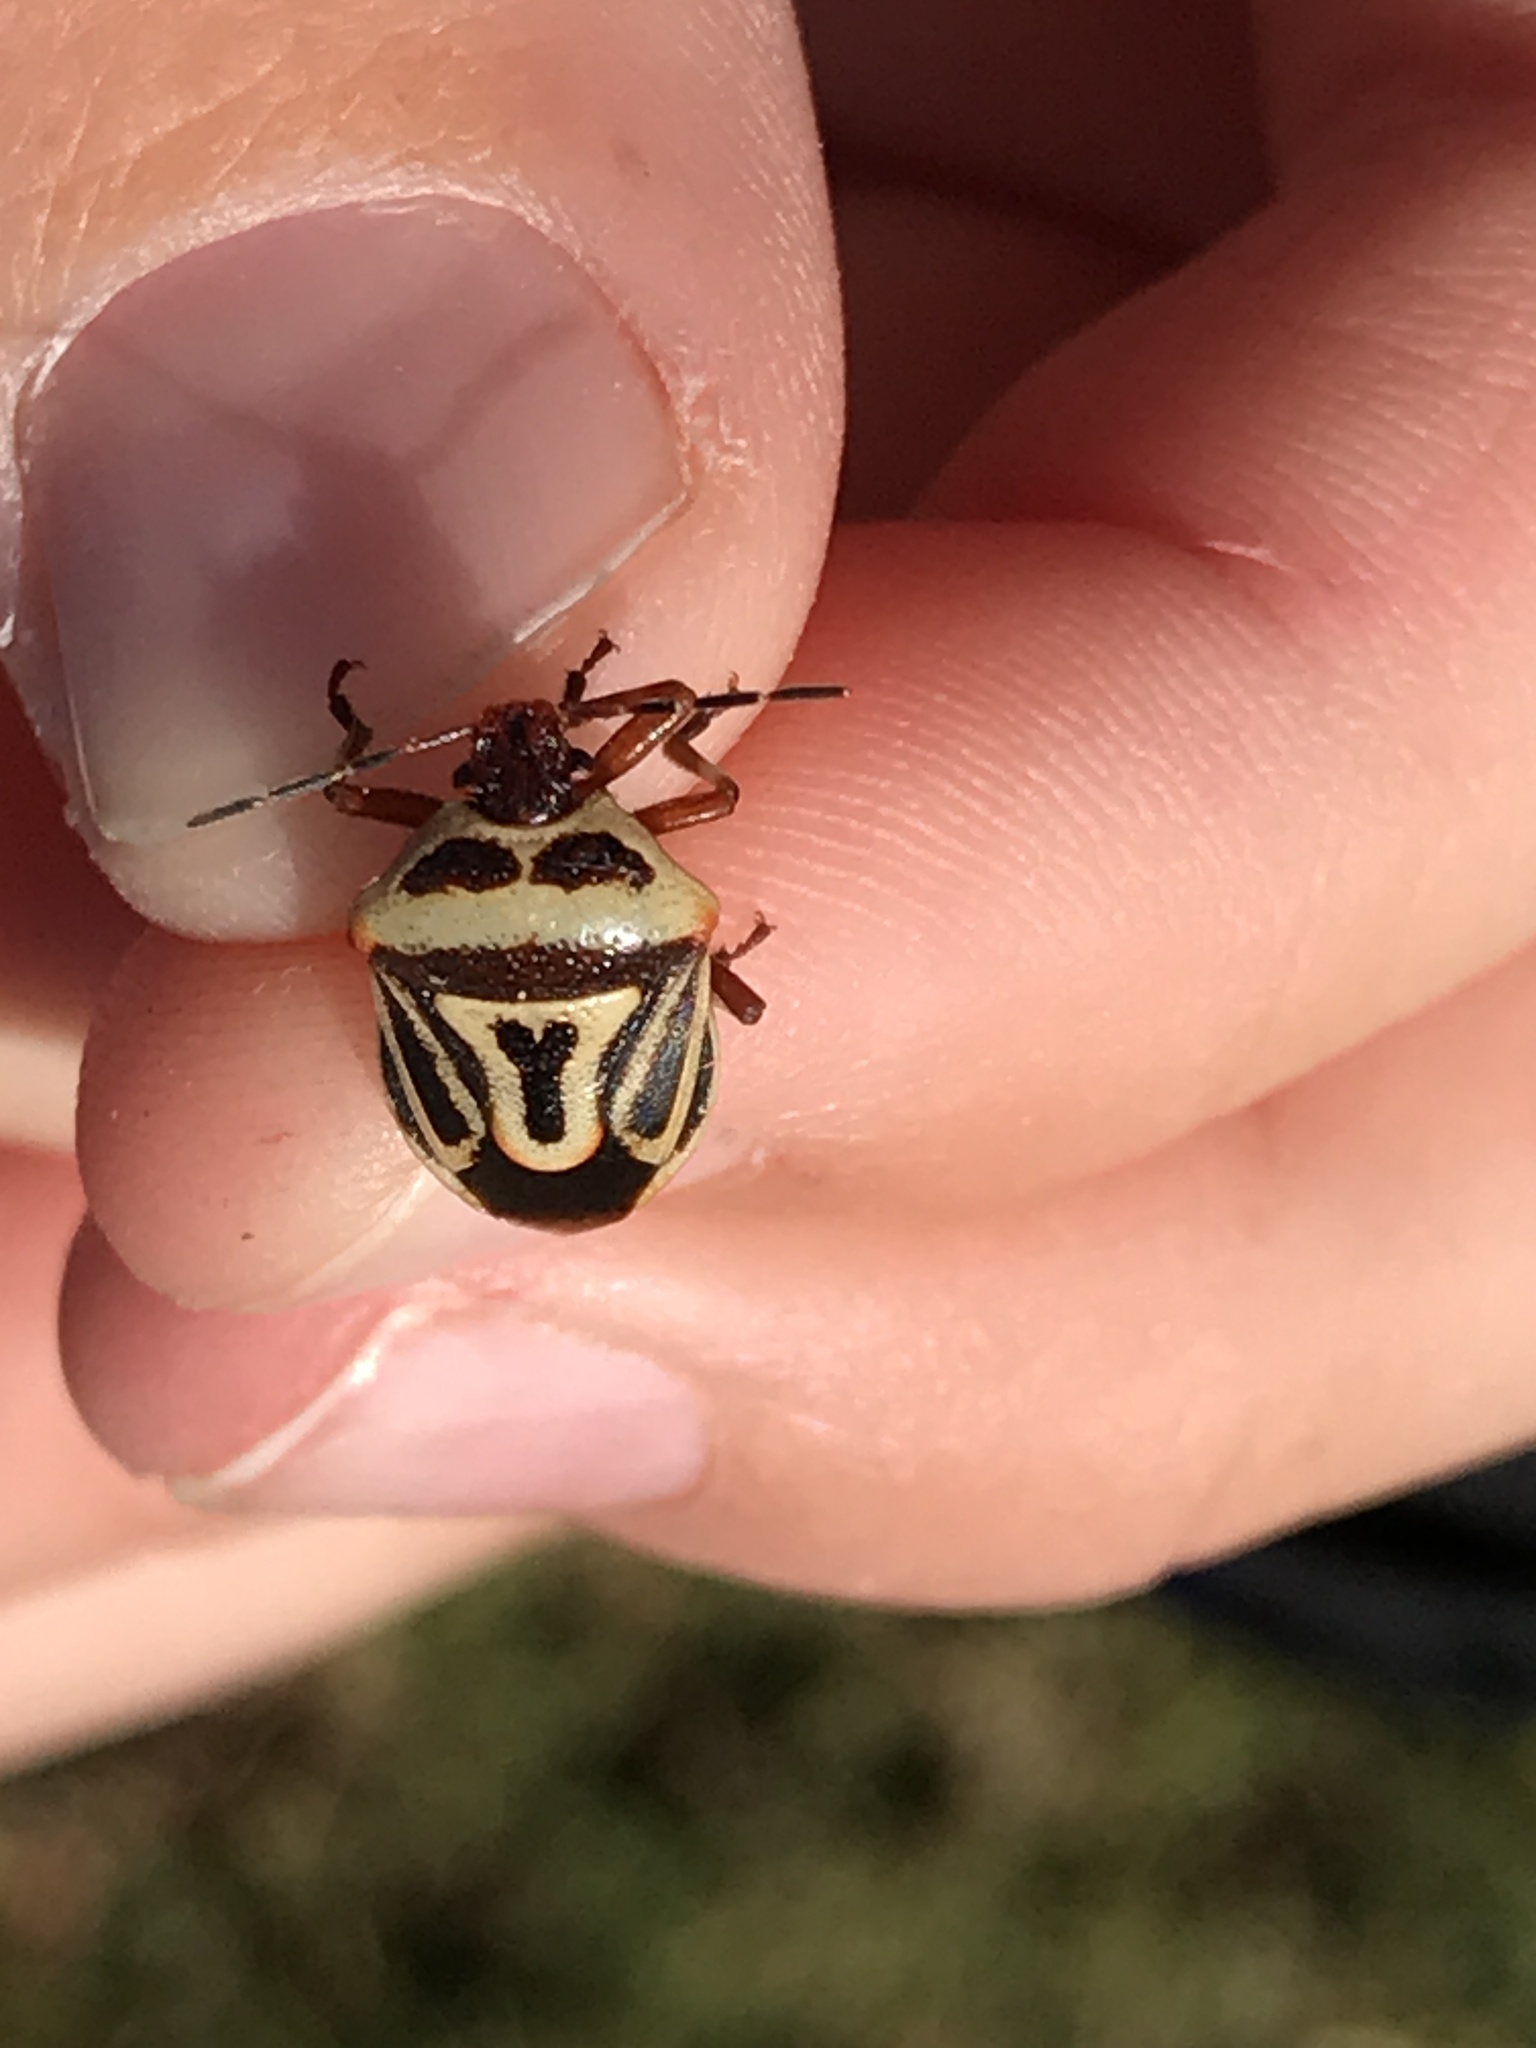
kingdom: Animalia
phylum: Arthropoda
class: Insecta
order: Hemiptera
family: Pentatomidae
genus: Perillus
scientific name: Perillus bioculatus
